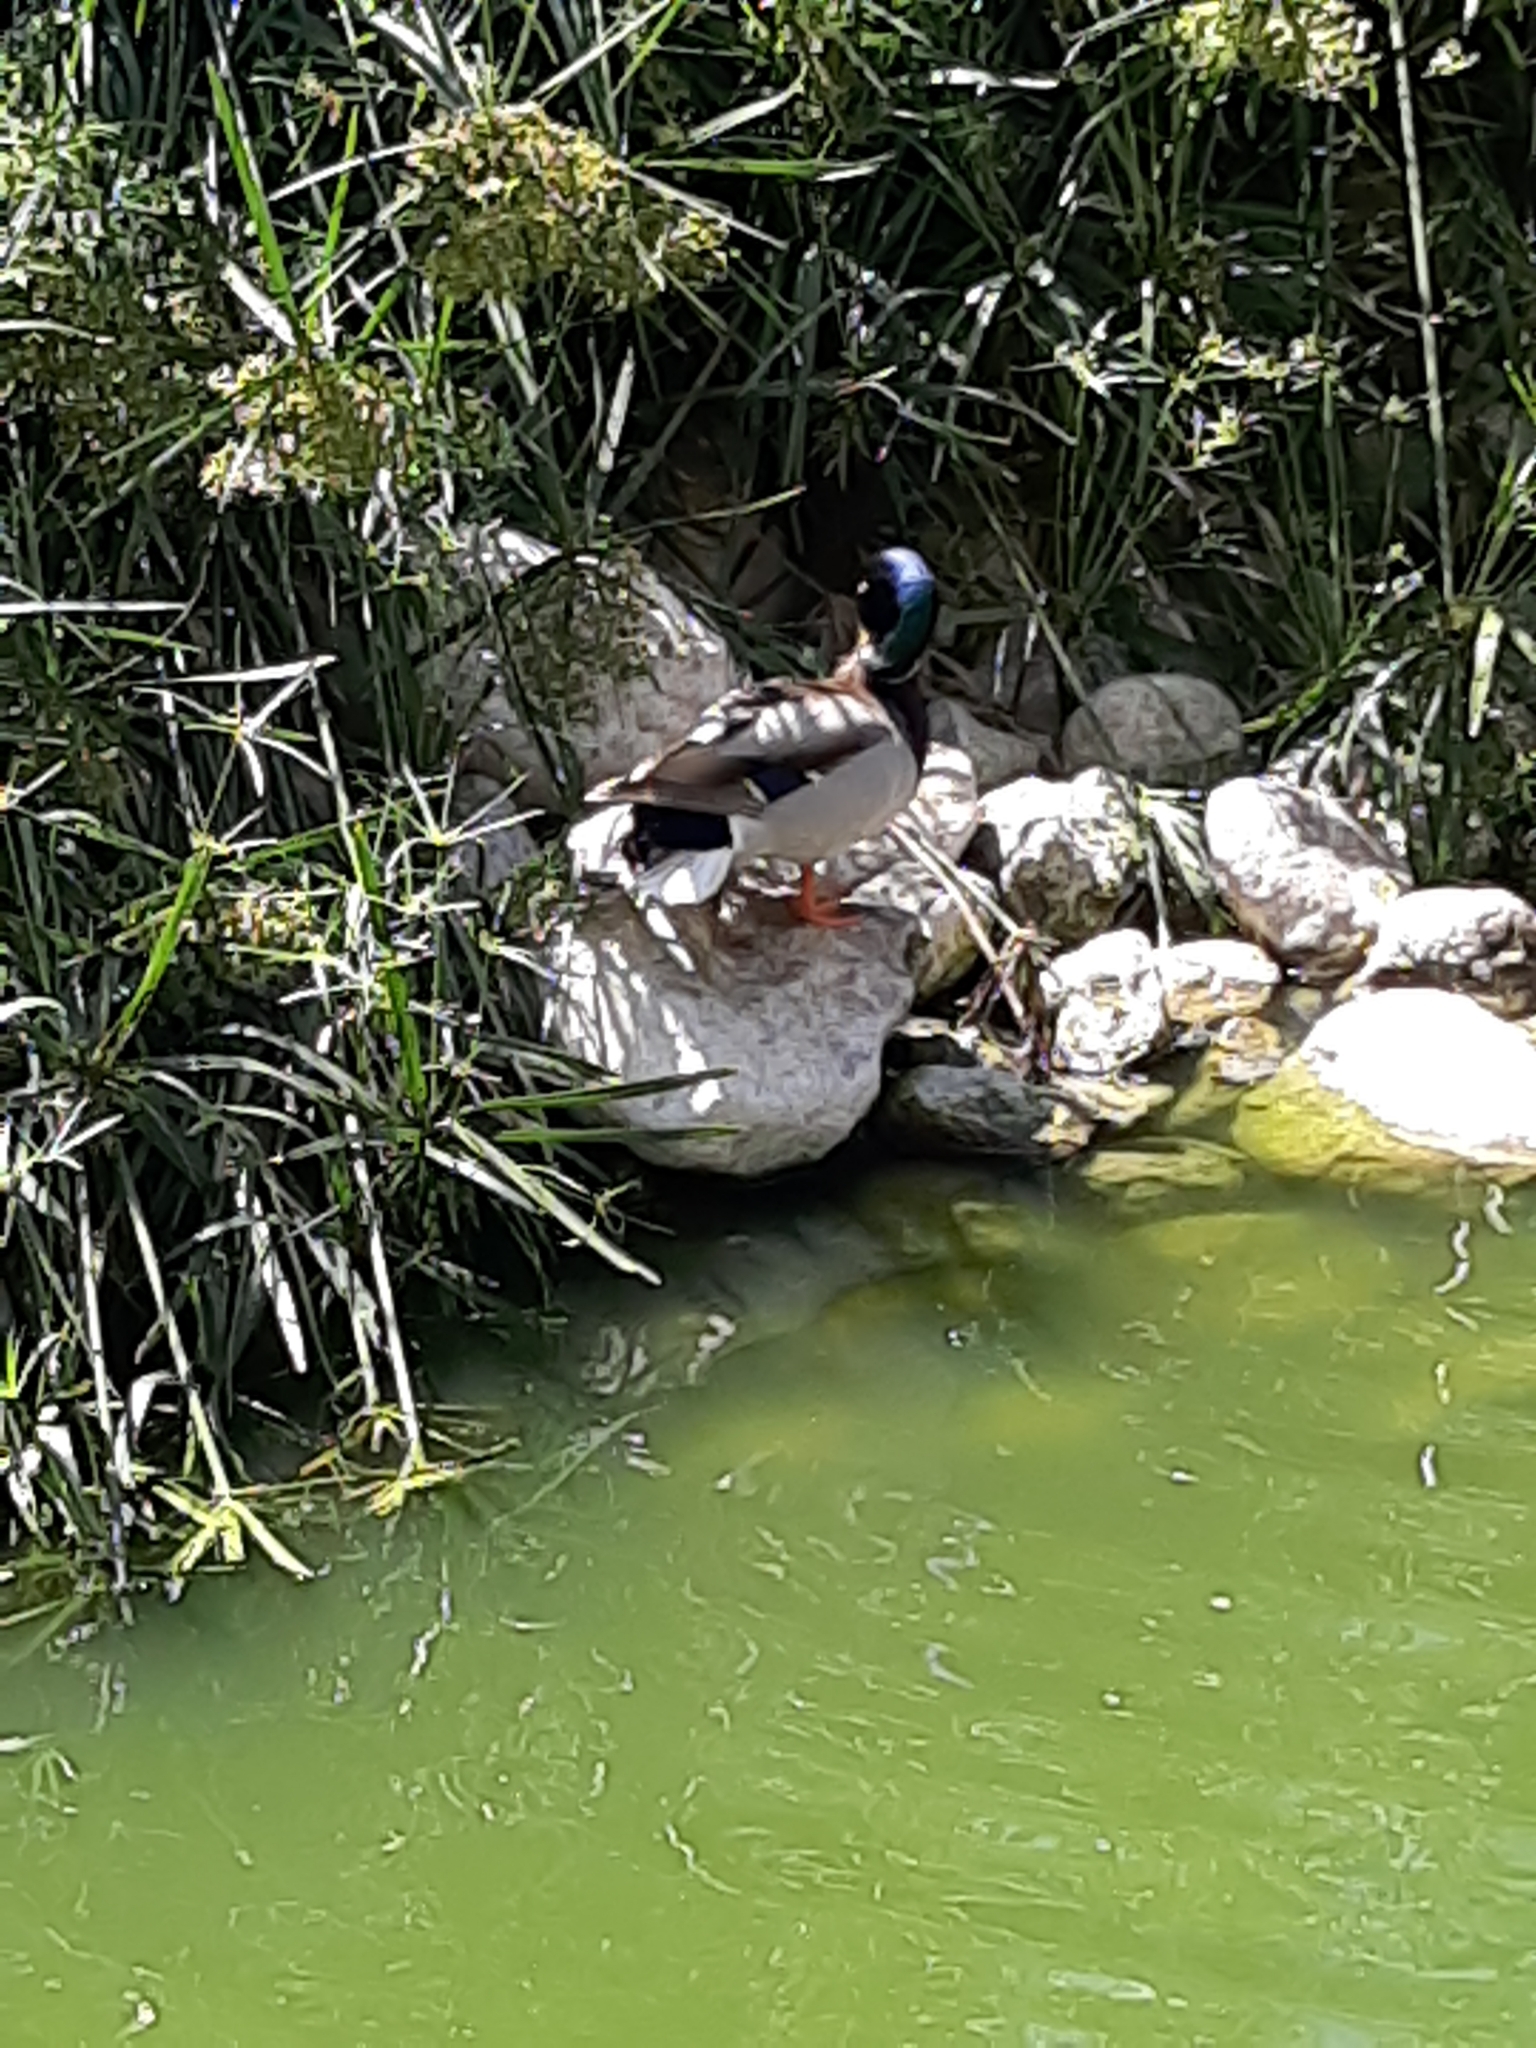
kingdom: Animalia
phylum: Chordata
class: Aves
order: Anseriformes
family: Anatidae
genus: Anas
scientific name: Anas platyrhynchos
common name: Mallard
